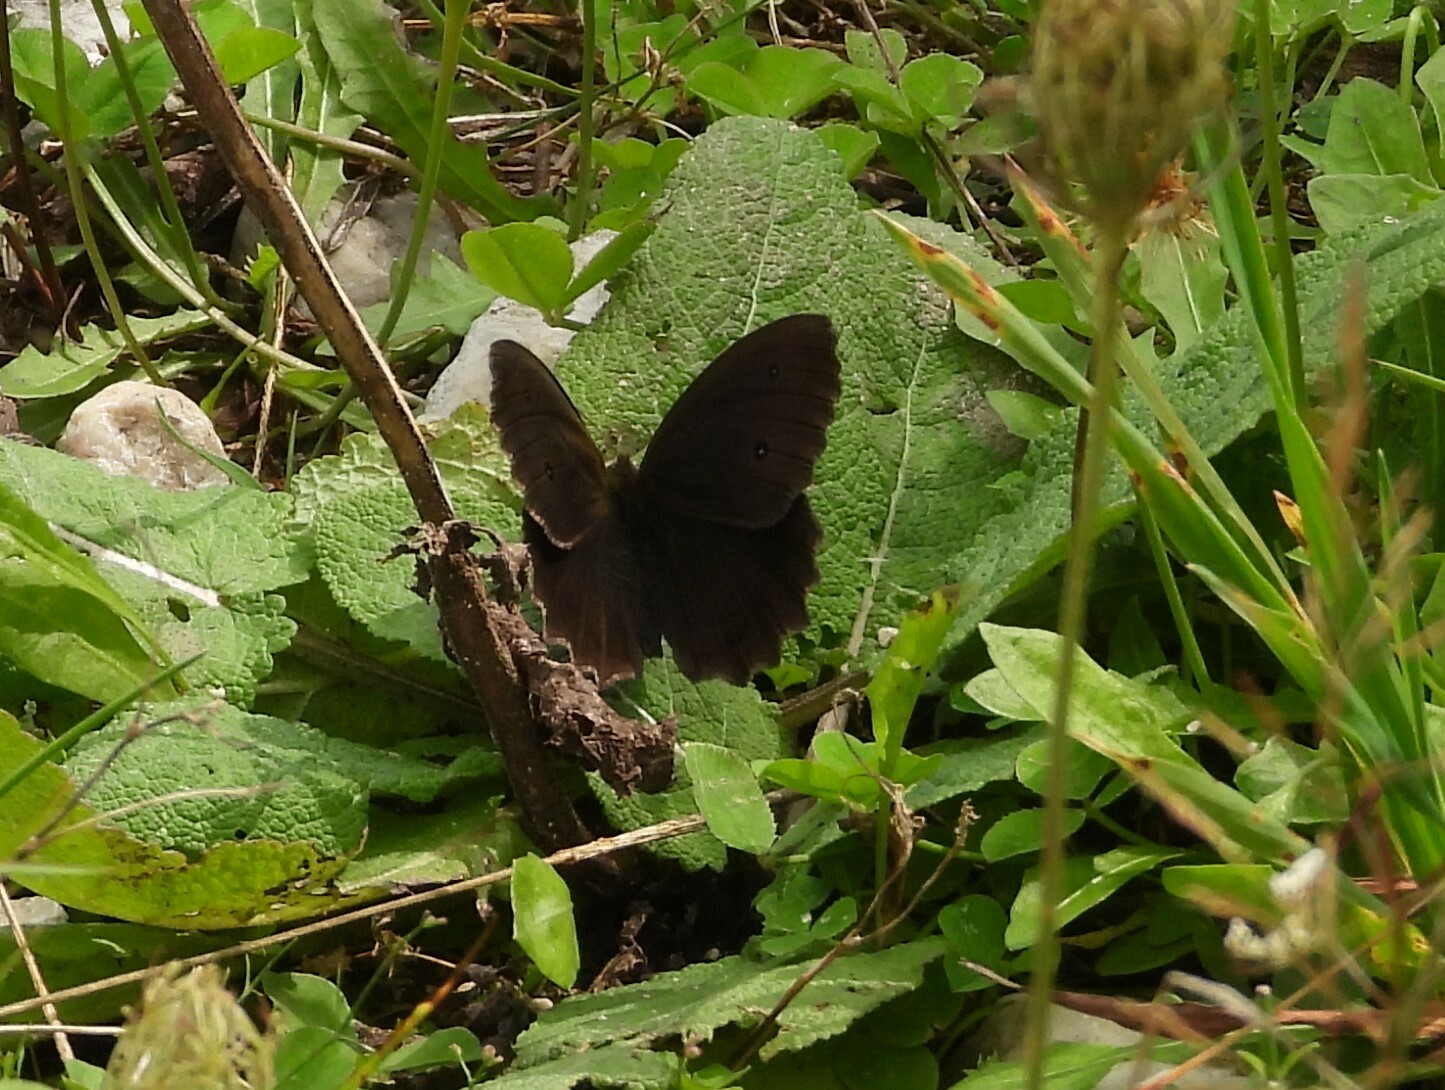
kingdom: Animalia
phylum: Arthropoda
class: Insecta
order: Lepidoptera
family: Nymphalidae
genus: Minois
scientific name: Minois dryas
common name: Dryad
